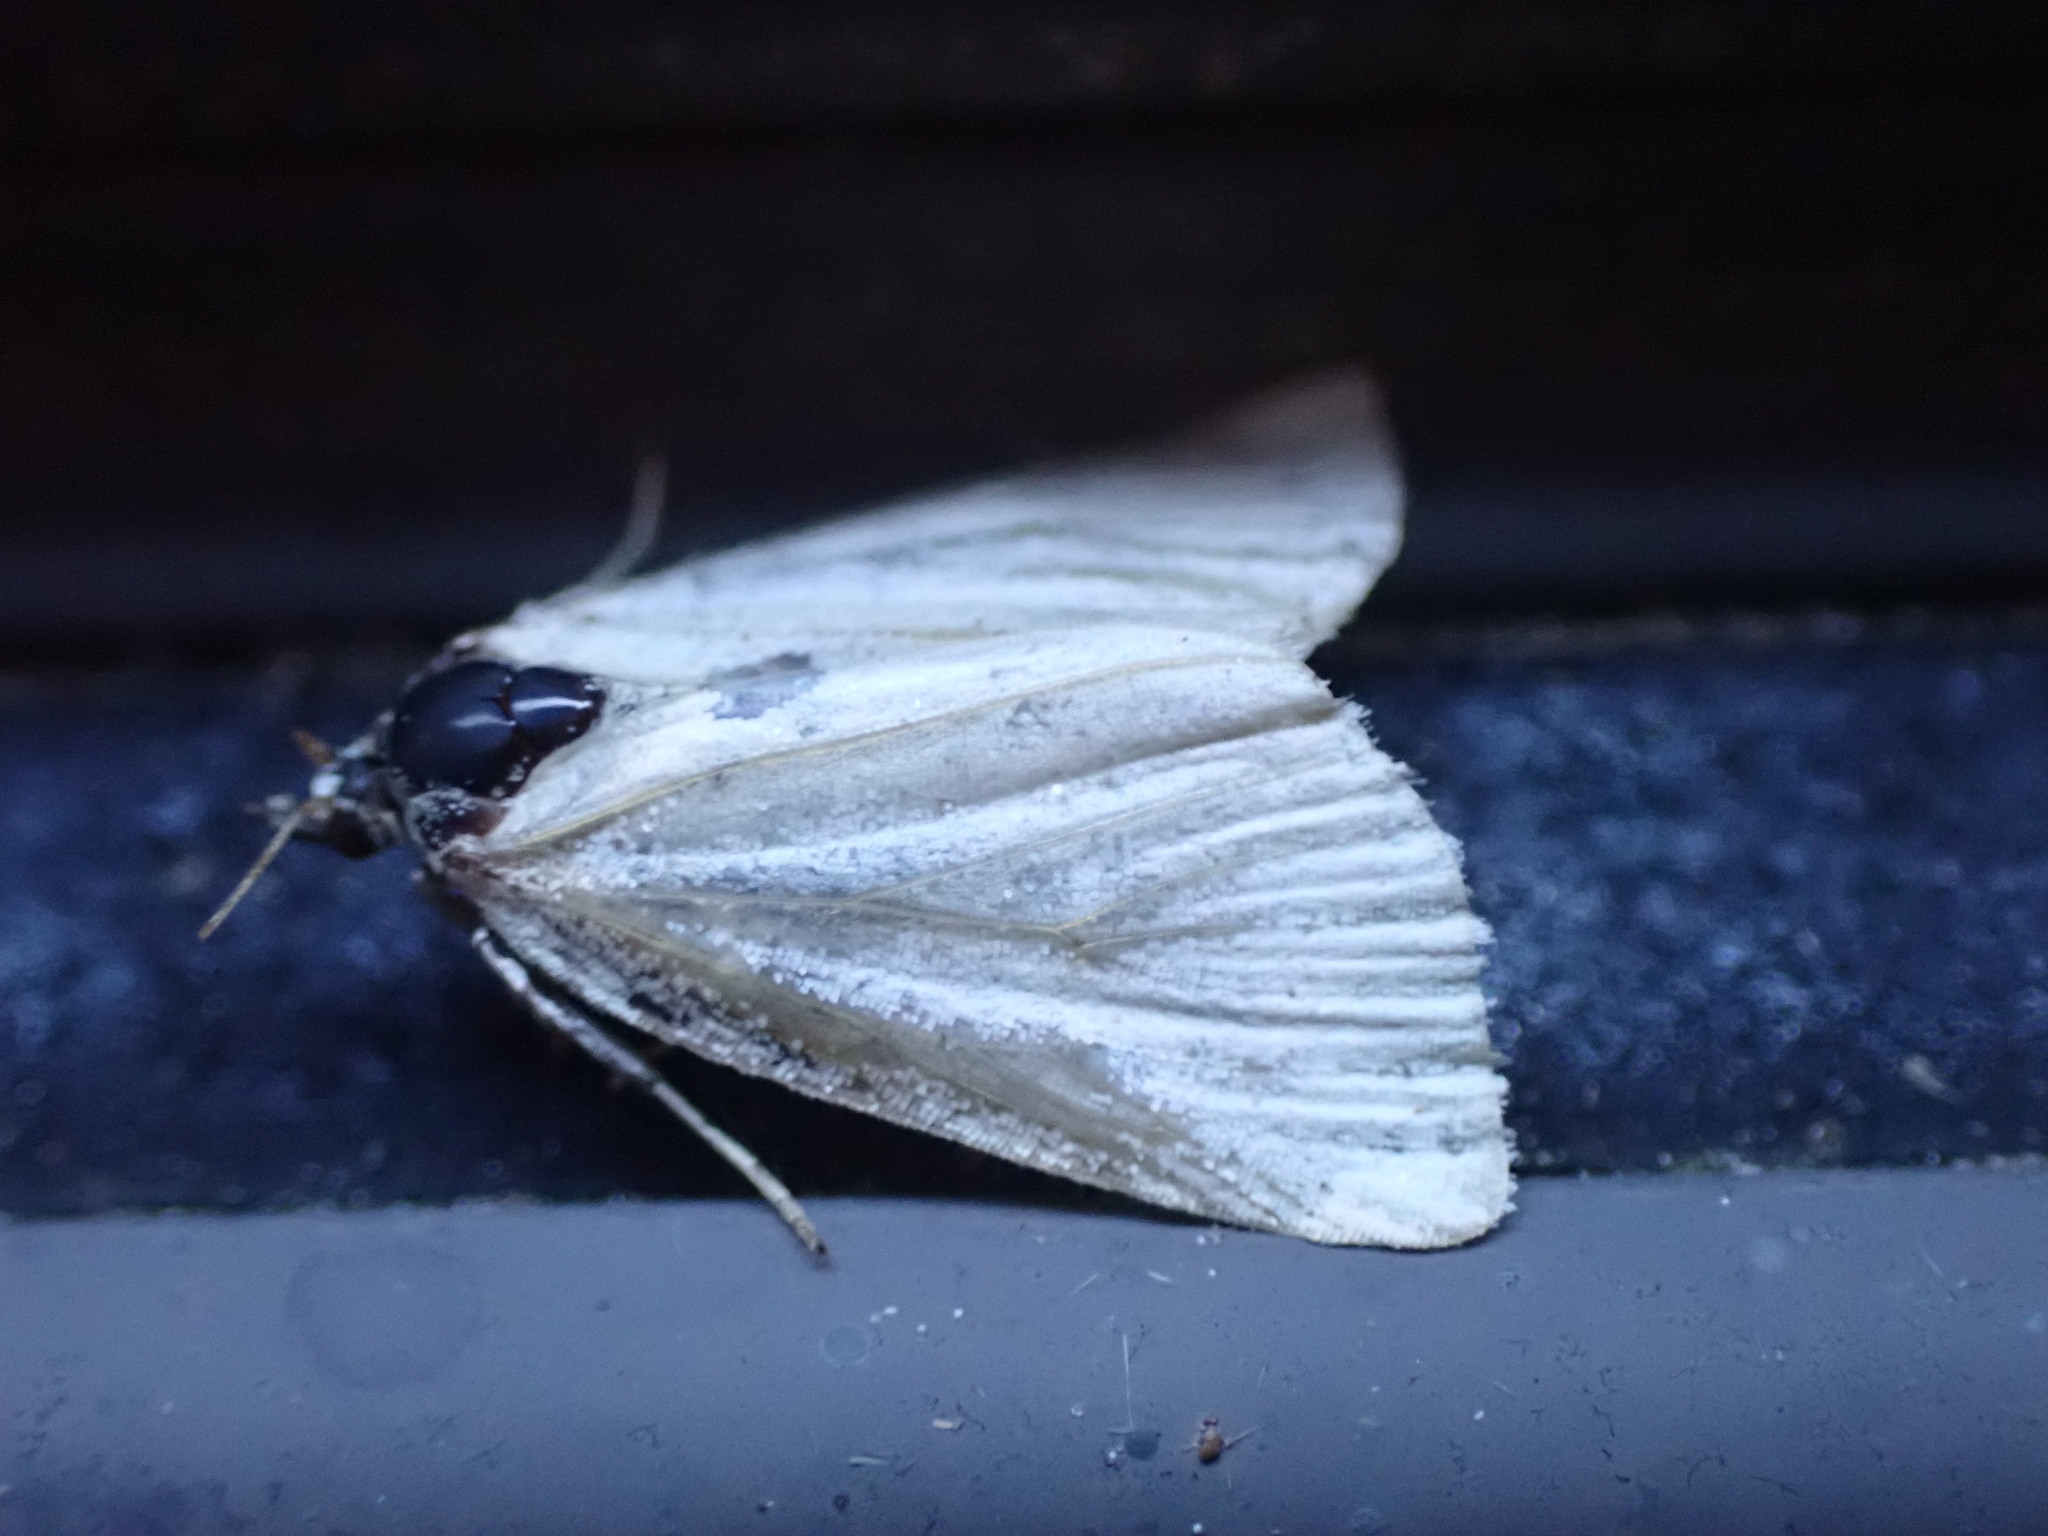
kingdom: Animalia
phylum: Arthropoda
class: Insecta
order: Lepidoptera
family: Noctuidae
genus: Protodeltote
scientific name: Protodeltote albidula
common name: Pale glyph
